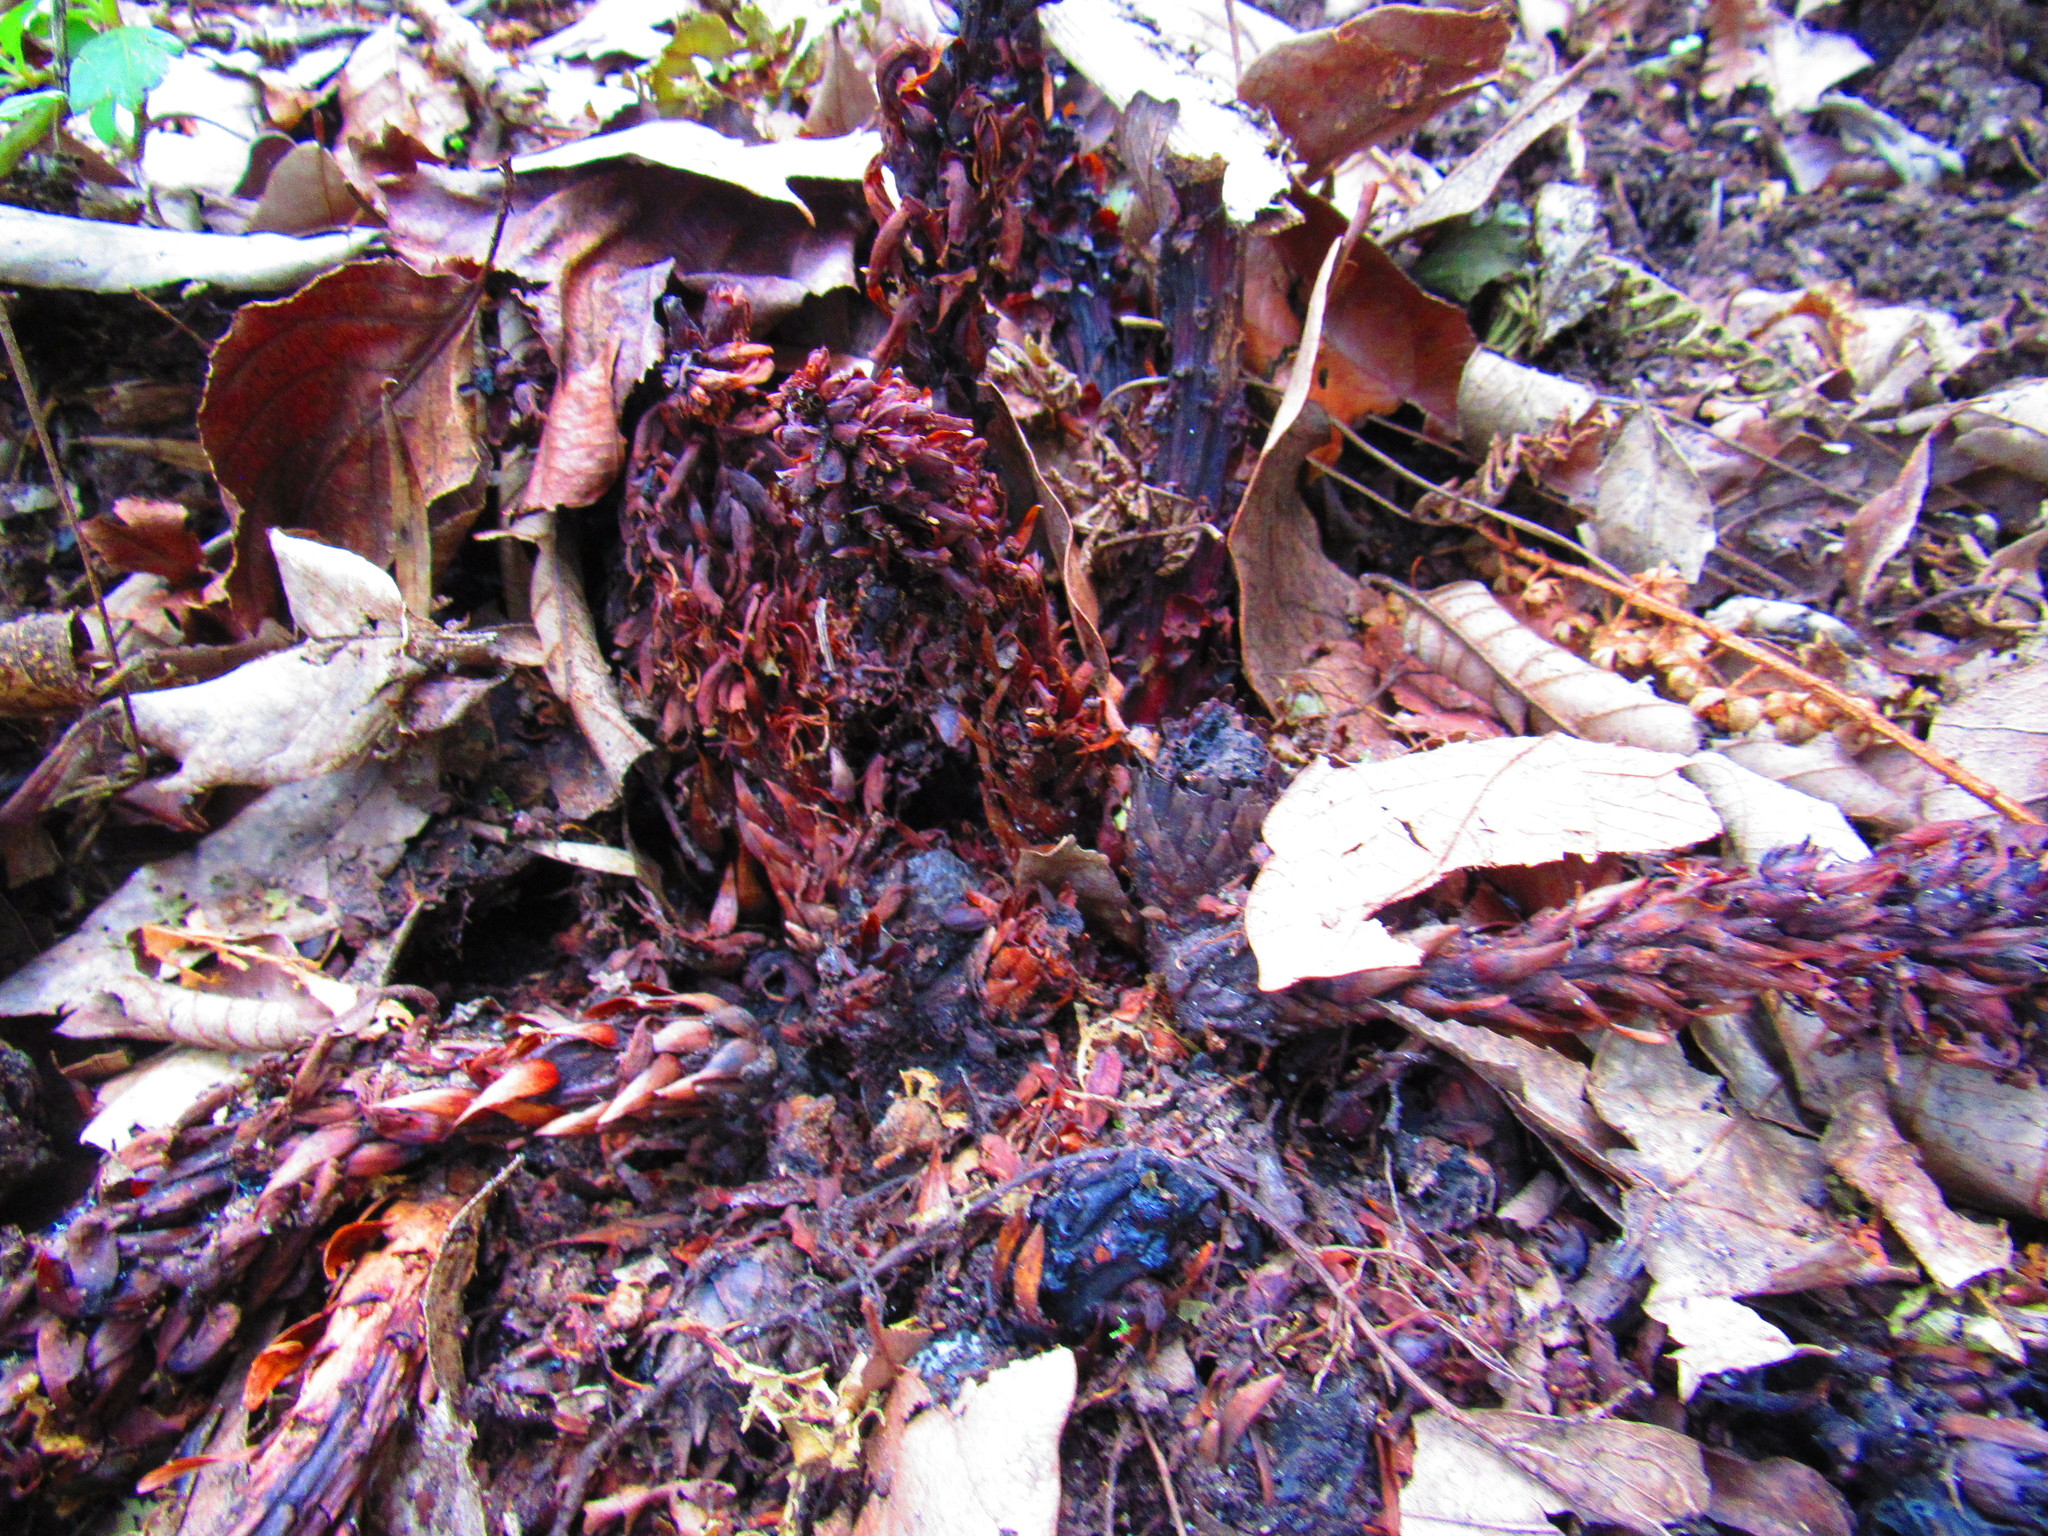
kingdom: Plantae
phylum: Tracheophyta
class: Magnoliopsida
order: Lamiales
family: Orobanchaceae
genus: Conopholis
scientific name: Conopholis alpina
